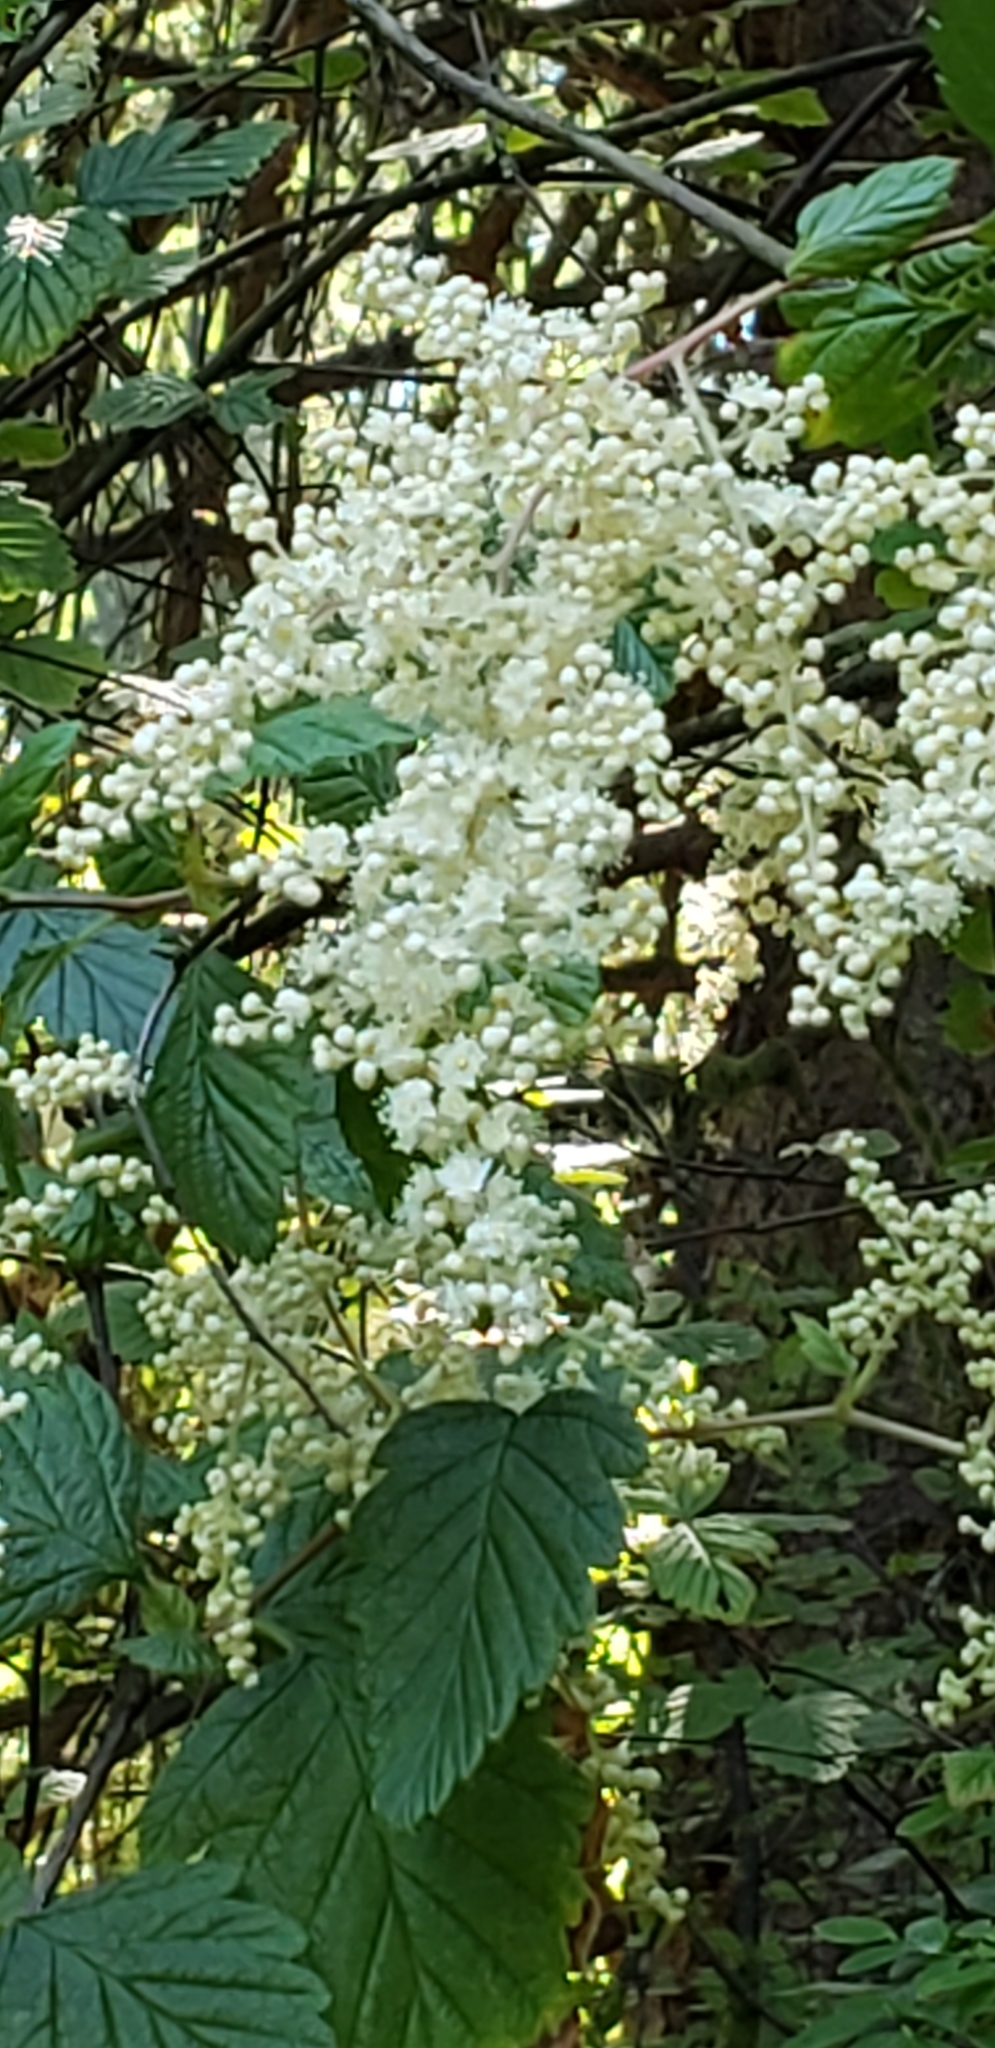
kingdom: Plantae
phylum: Tracheophyta
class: Magnoliopsida
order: Rosales
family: Rosaceae
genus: Holodiscus
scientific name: Holodiscus discolor
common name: Oceanspray
